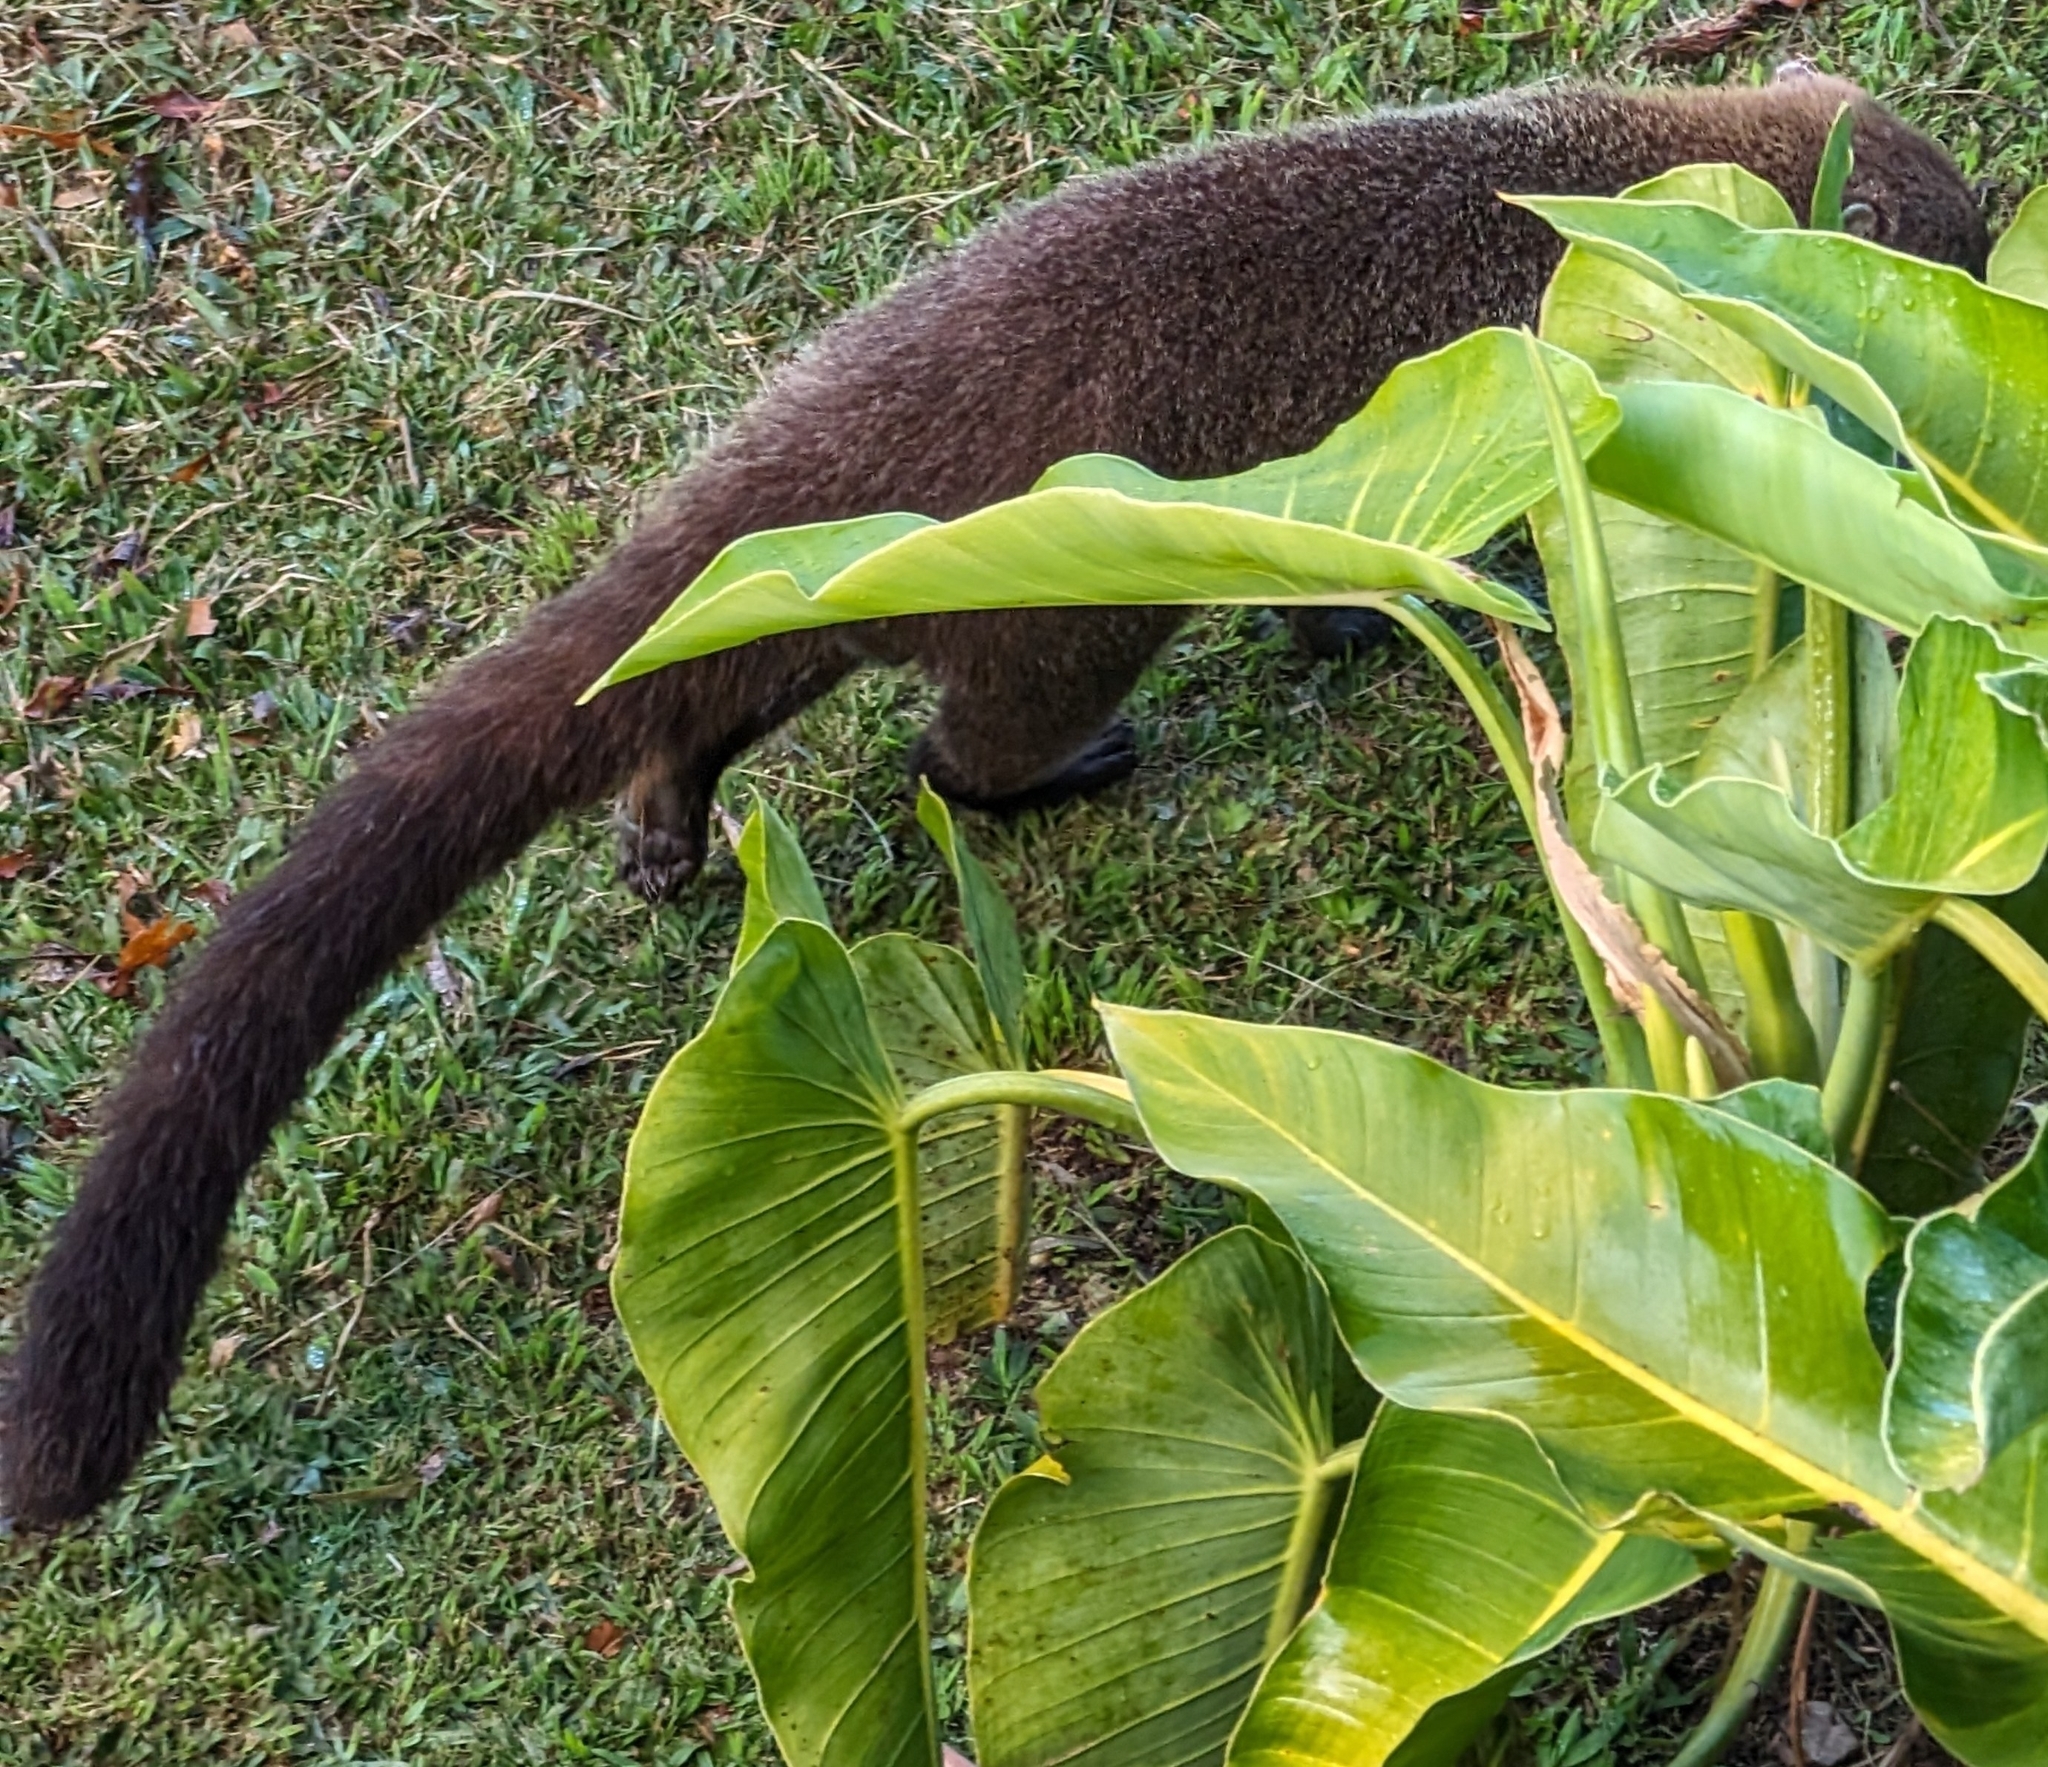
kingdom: Animalia
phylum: Chordata
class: Mammalia
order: Carnivora
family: Procyonidae
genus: Nasua
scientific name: Nasua narica
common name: White-nosed coati
